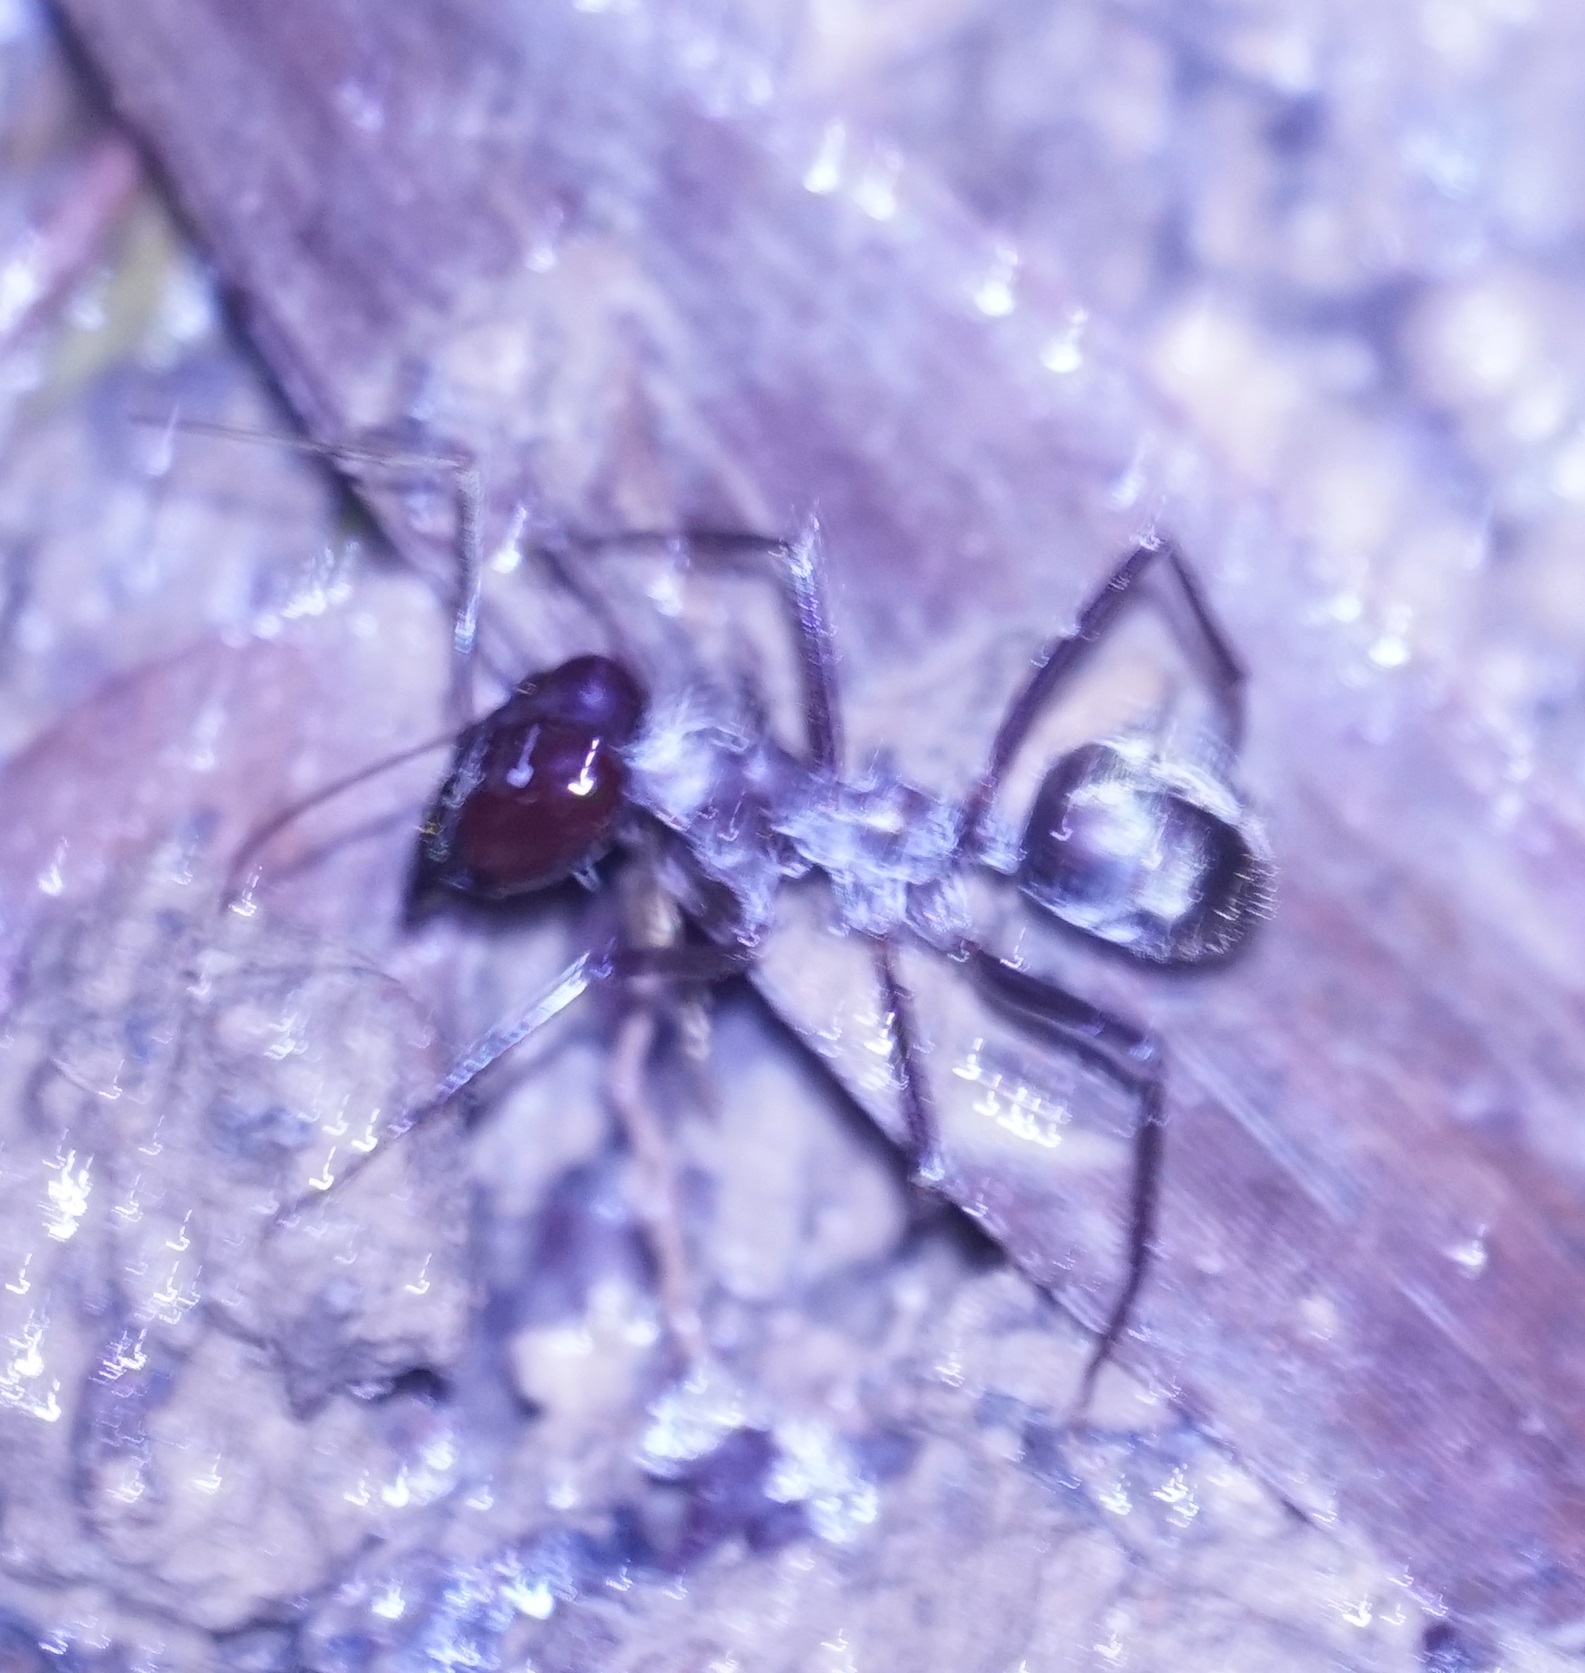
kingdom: Animalia
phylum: Arthropoda
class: Insecta
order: Hymenoptera
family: Formicidae
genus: Notostigma
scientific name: Notostigma carazzii
